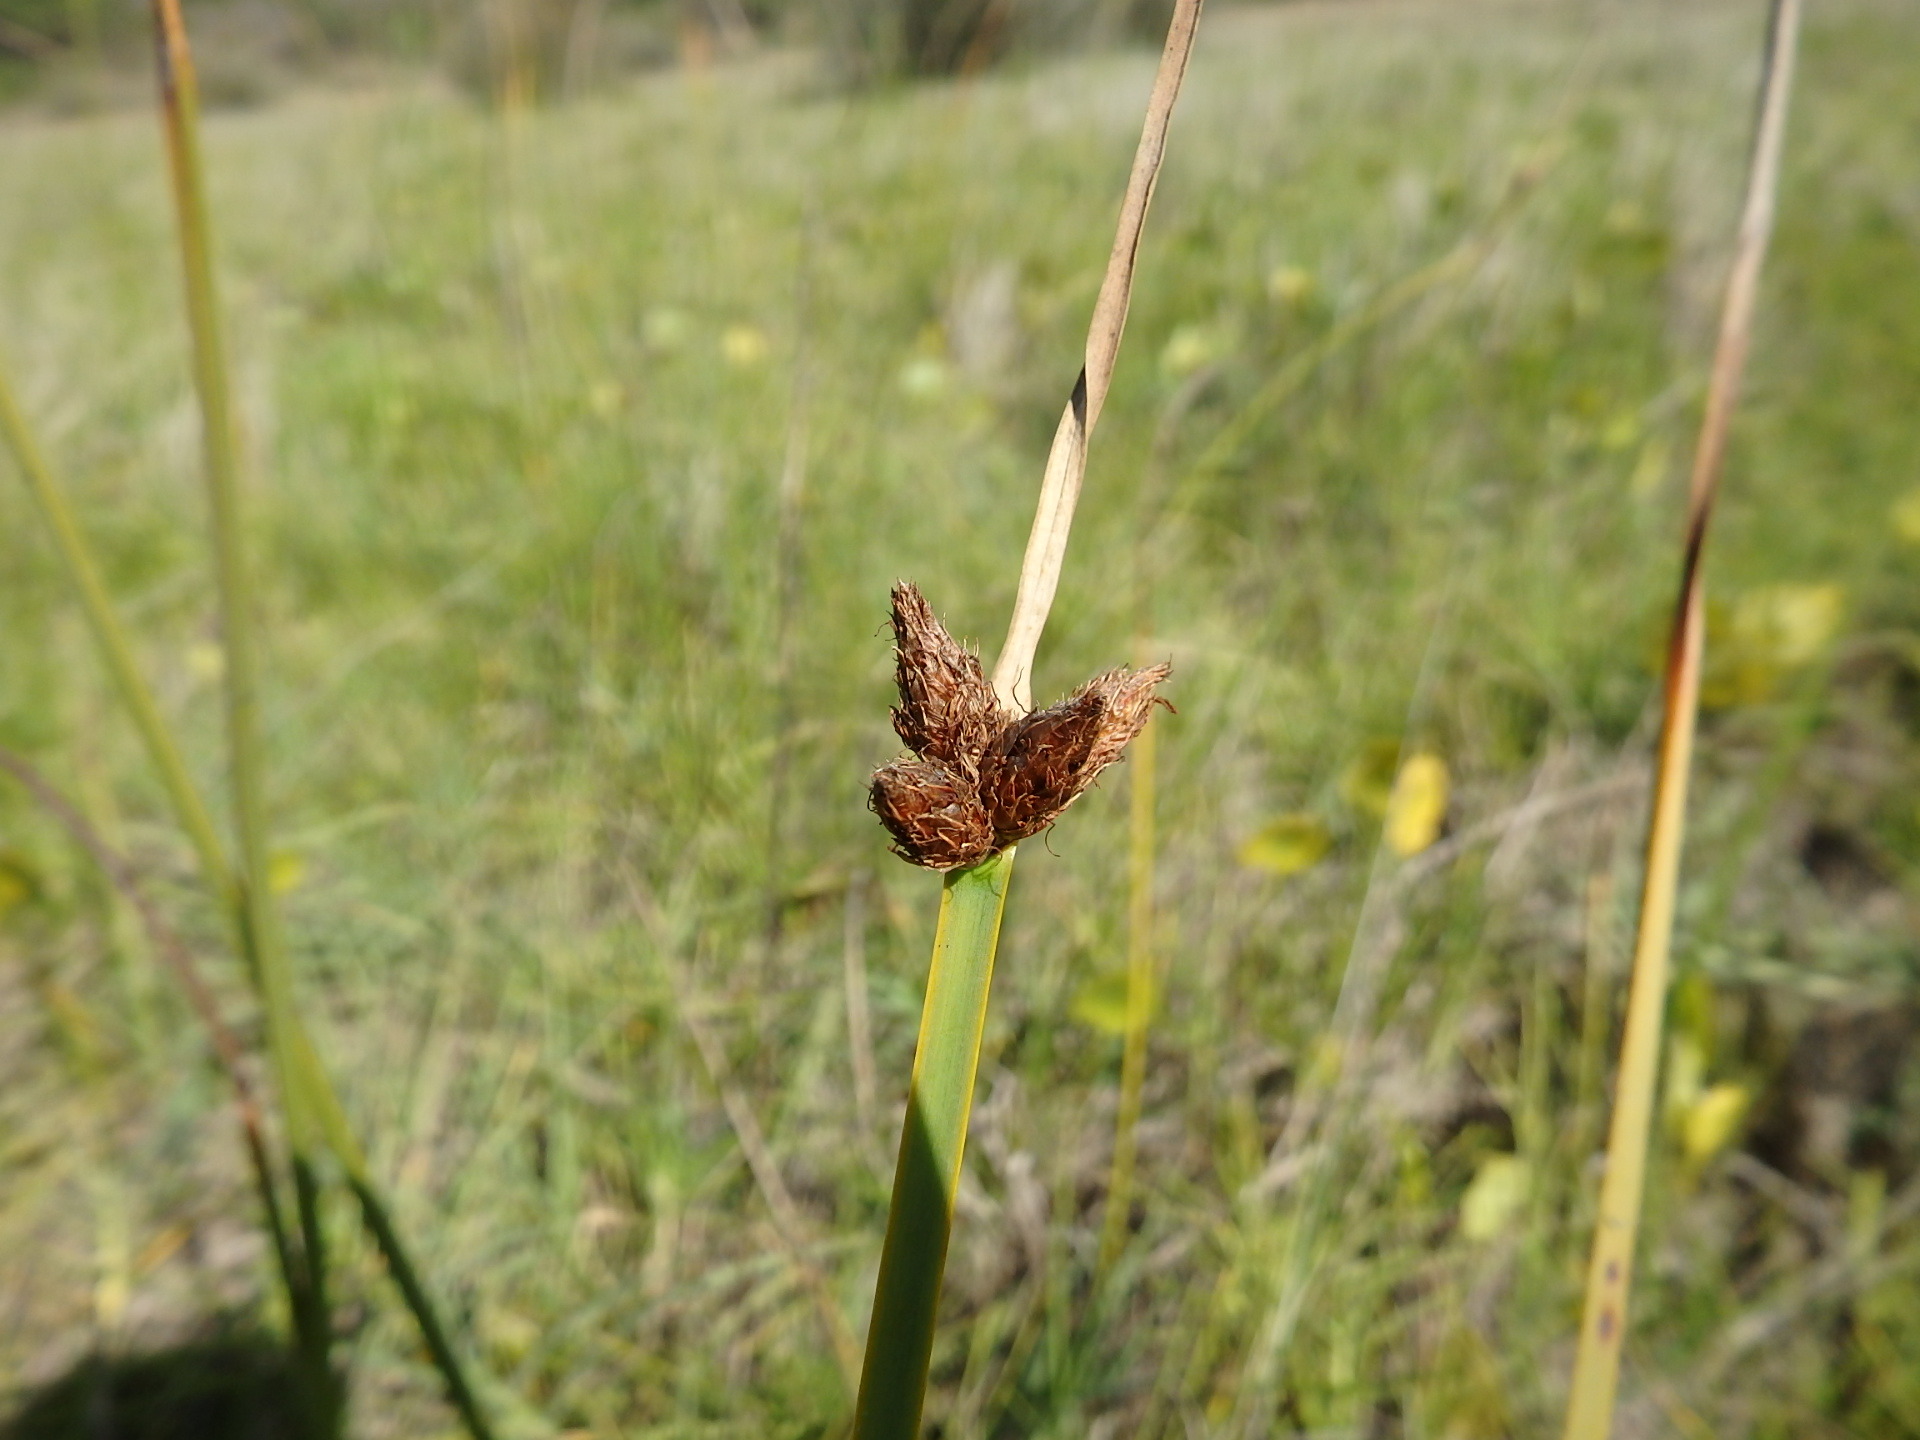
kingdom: Plantae
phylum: Tracheophyta
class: Liliopsida
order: Poales
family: Cyperaceae
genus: Schoenoplectus
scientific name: Schoenoplectus pungens
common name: Sharp club-rush
